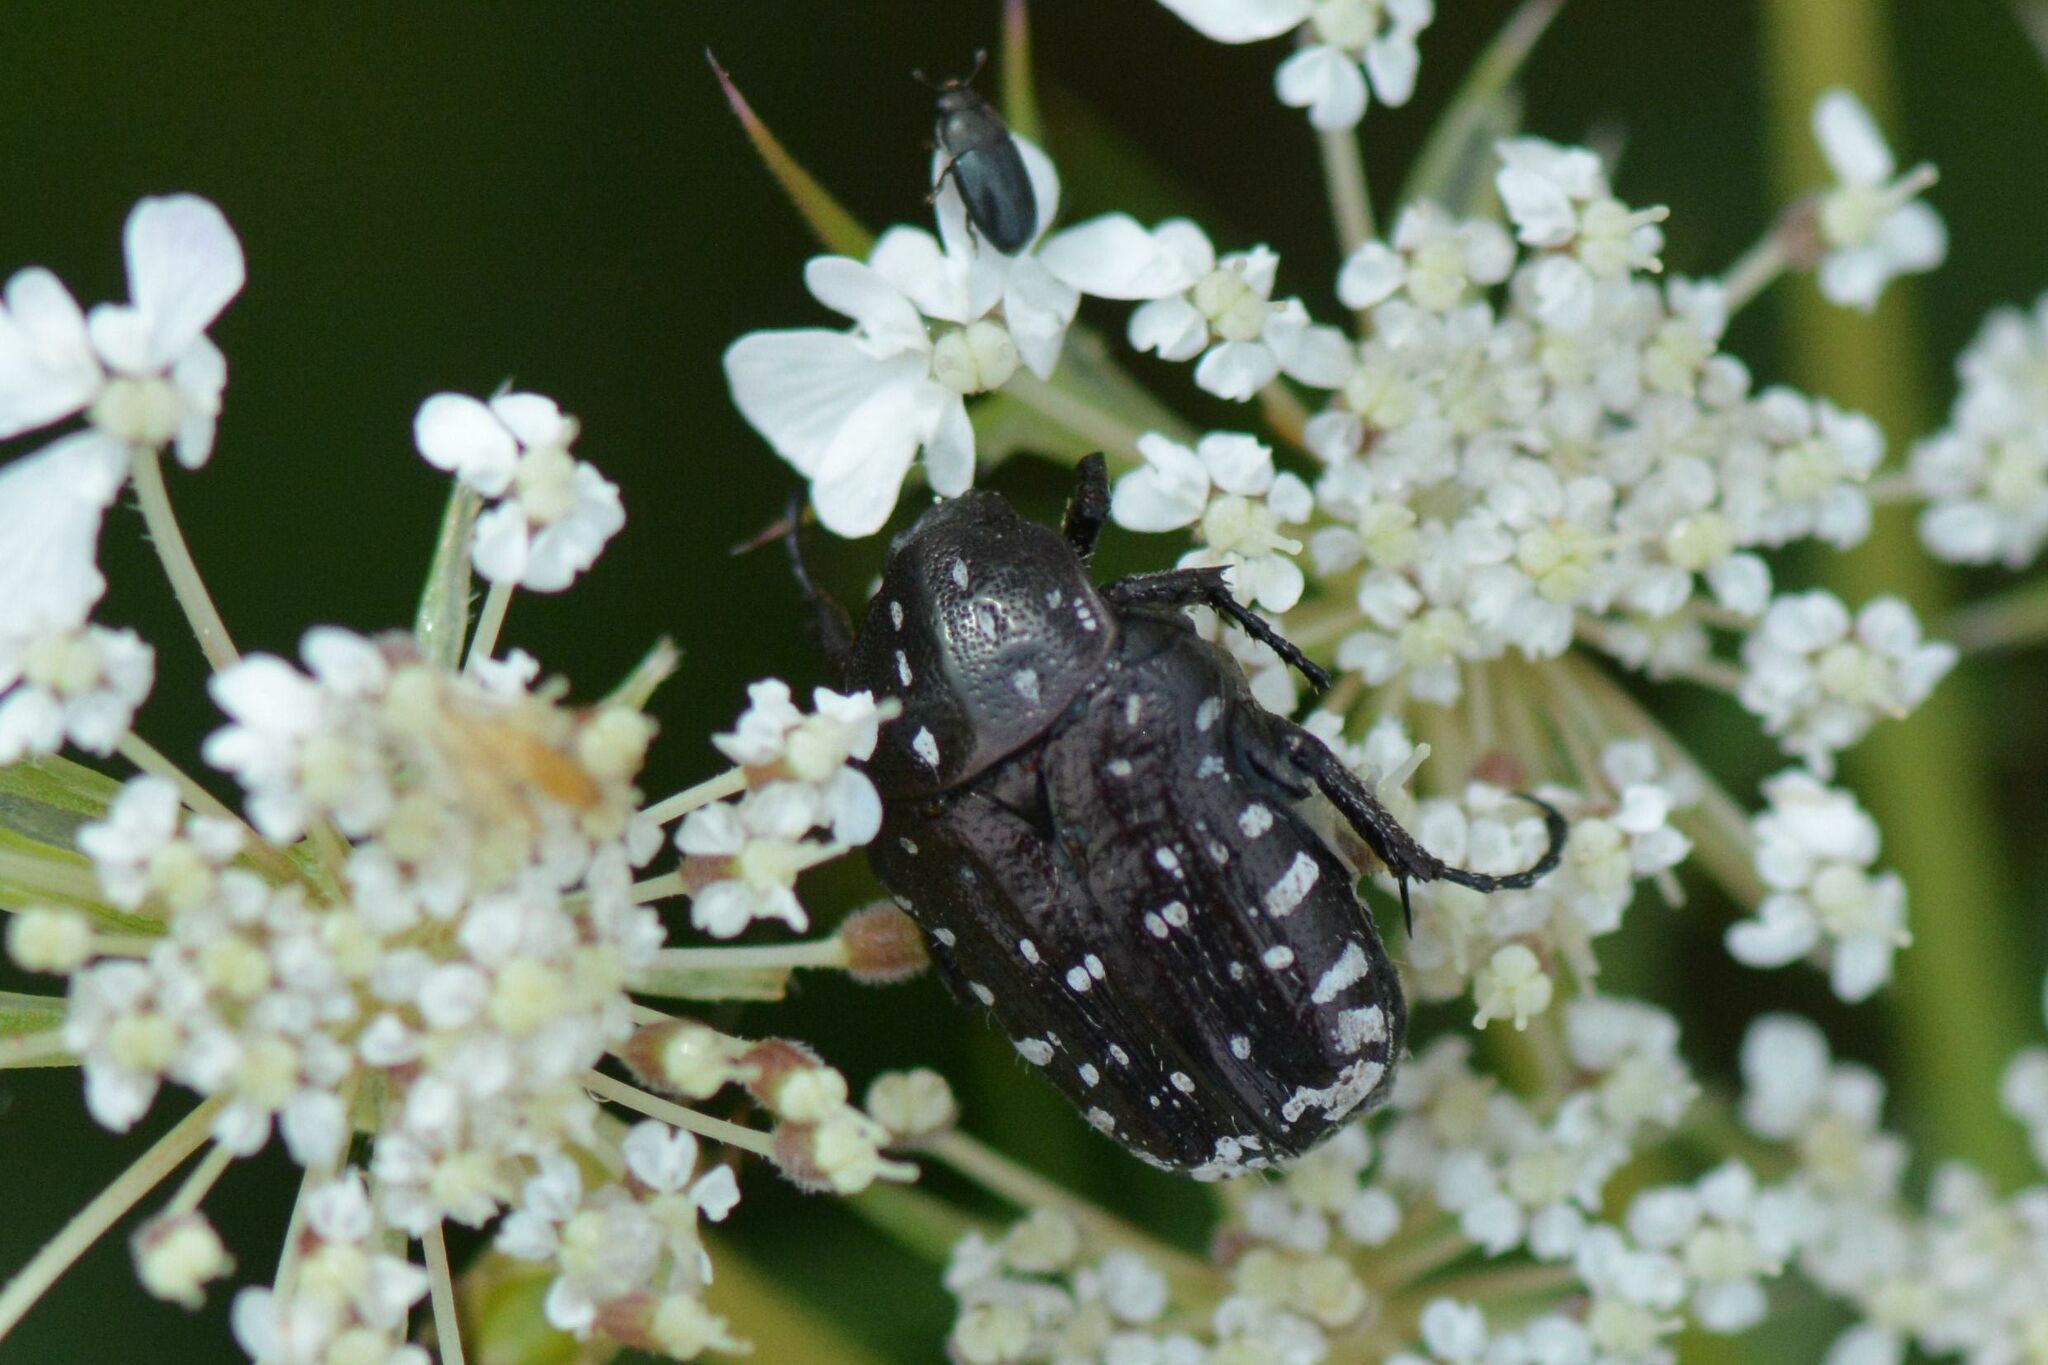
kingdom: Animalia
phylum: Arthropoda
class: Insecta
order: Coleoptera
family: Scarabaeidae
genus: Oxythyrea
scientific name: Oxythyrea funesta
